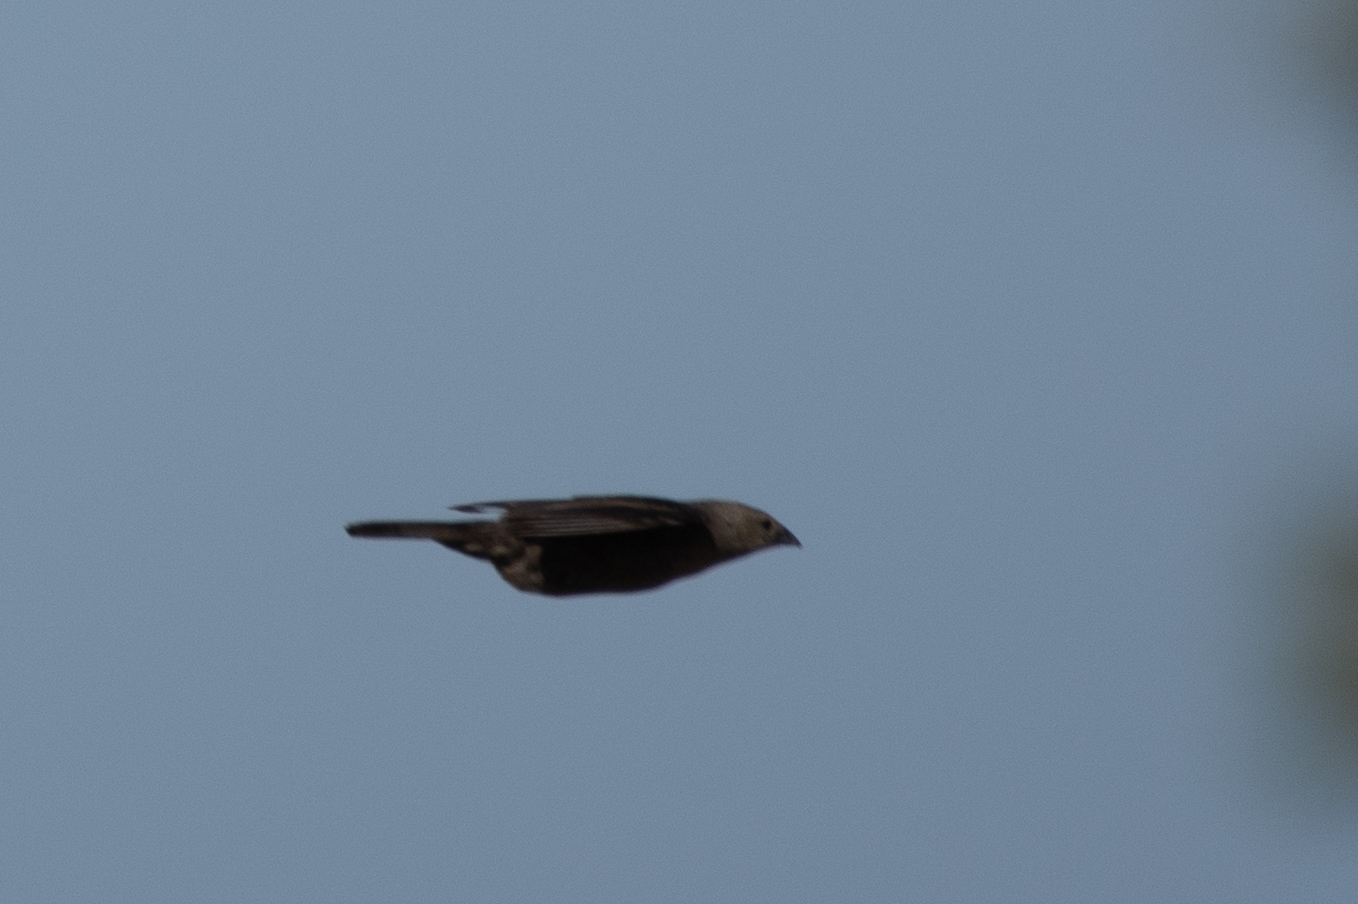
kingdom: Animalia
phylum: Chordata
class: Aves
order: Passeriformes
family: Icteridae
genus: Molothrus
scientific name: Molothrus ater
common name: Brown-headed cowbird
